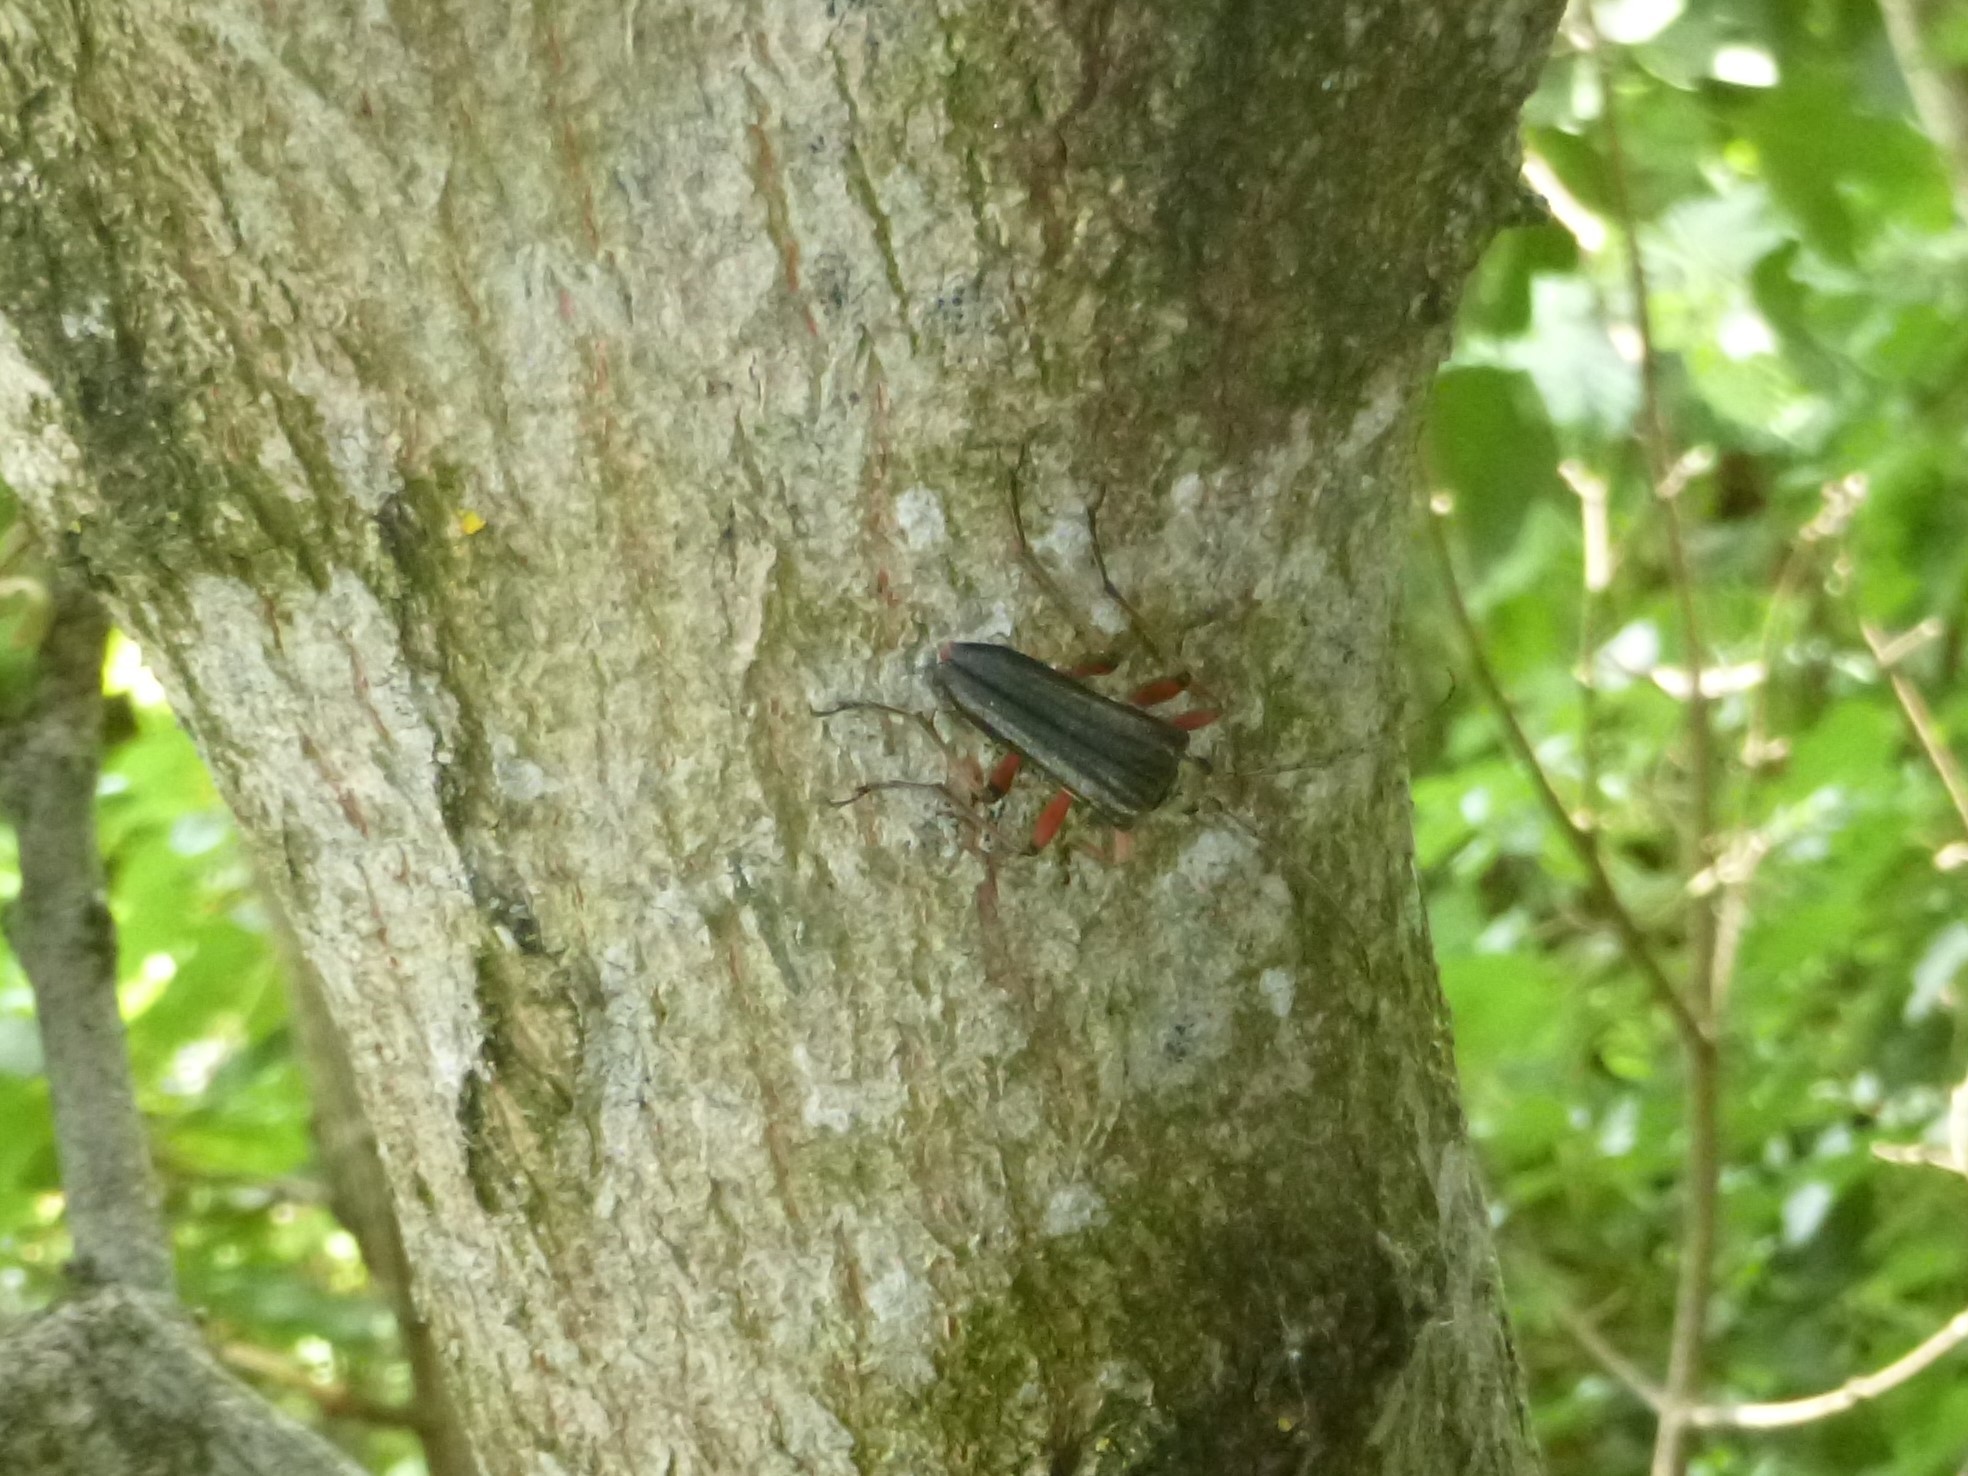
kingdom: Animalia
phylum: Arthropoda
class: Insecta
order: Coleoptera
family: Cerambycidae
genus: Stenocorus
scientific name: Stenocorus meridianus
